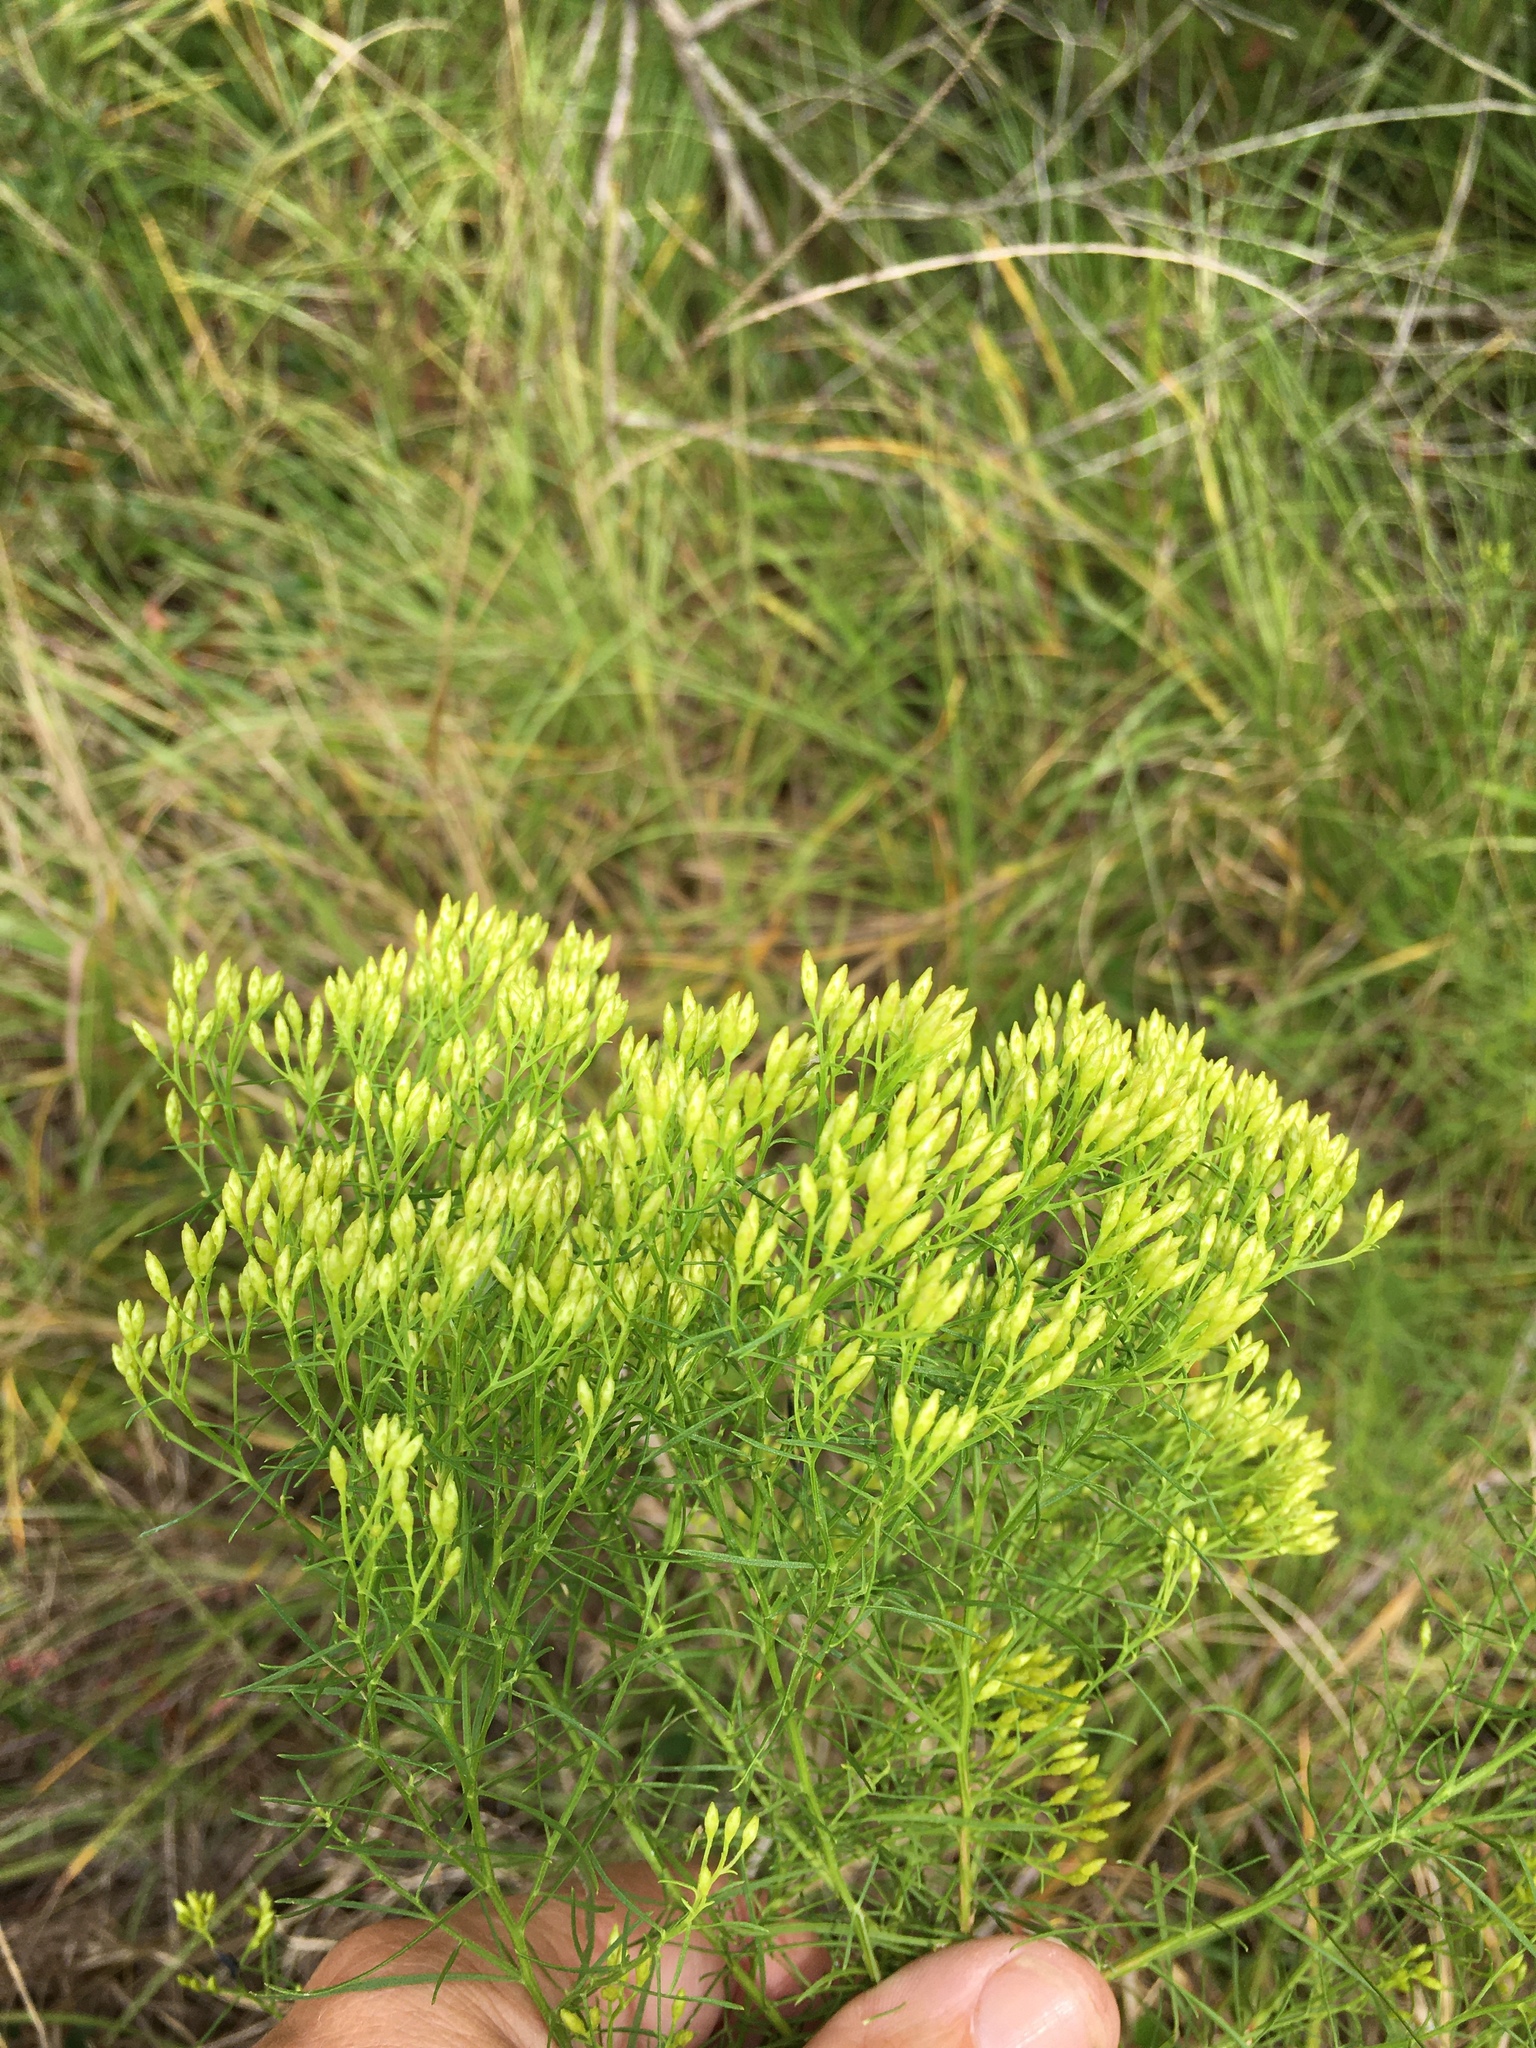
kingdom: Plantae
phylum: Tracheophyta
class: Magnoliopsida
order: Asterales
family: Asteraceae
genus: Euthamia
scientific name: Euthamia caroliniana
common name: Coastal plain goldentop
